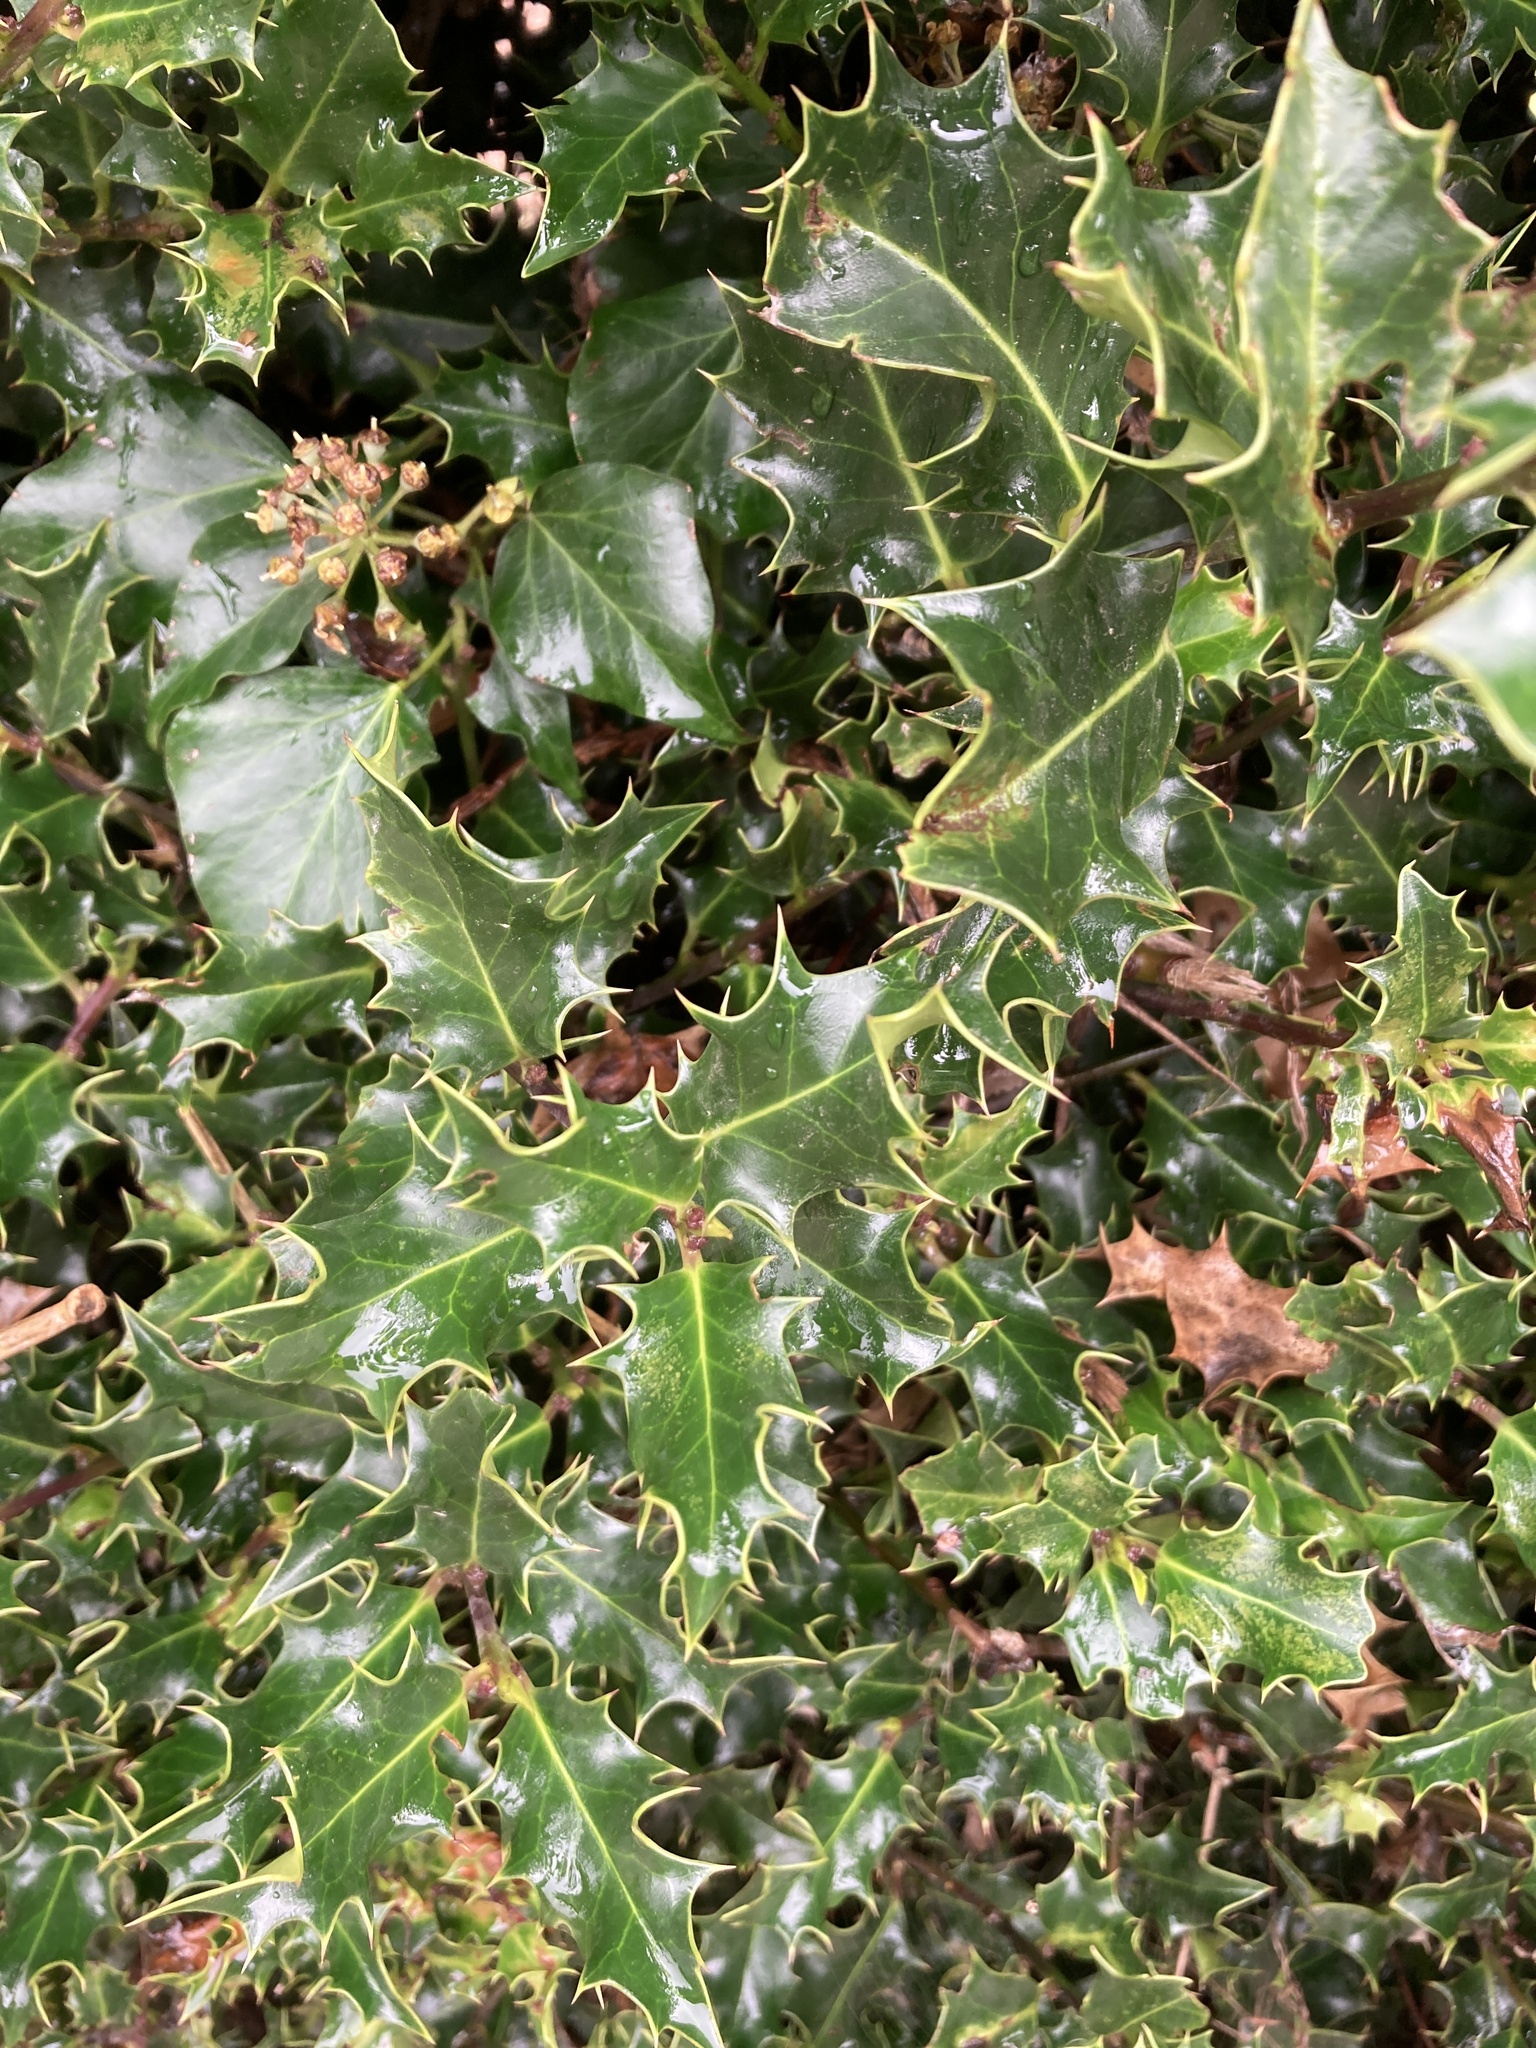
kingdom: Plantae
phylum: Tracheophyta
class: Magnoliopsida
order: Aquifoliales
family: Aquifoliaceae
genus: Ilex
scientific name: Ilex aquifolium
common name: English holly
